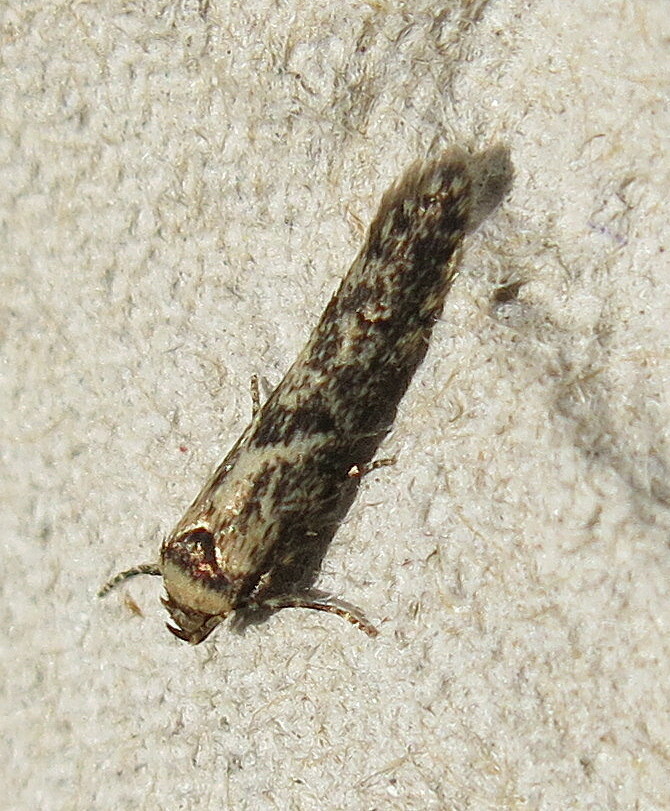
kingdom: Animalia
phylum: Arthropoda
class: Insecta
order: Lepidoptera
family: Blastobasidae
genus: Blastobasis
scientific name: Blastobasis adustella
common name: Dingy dowd
